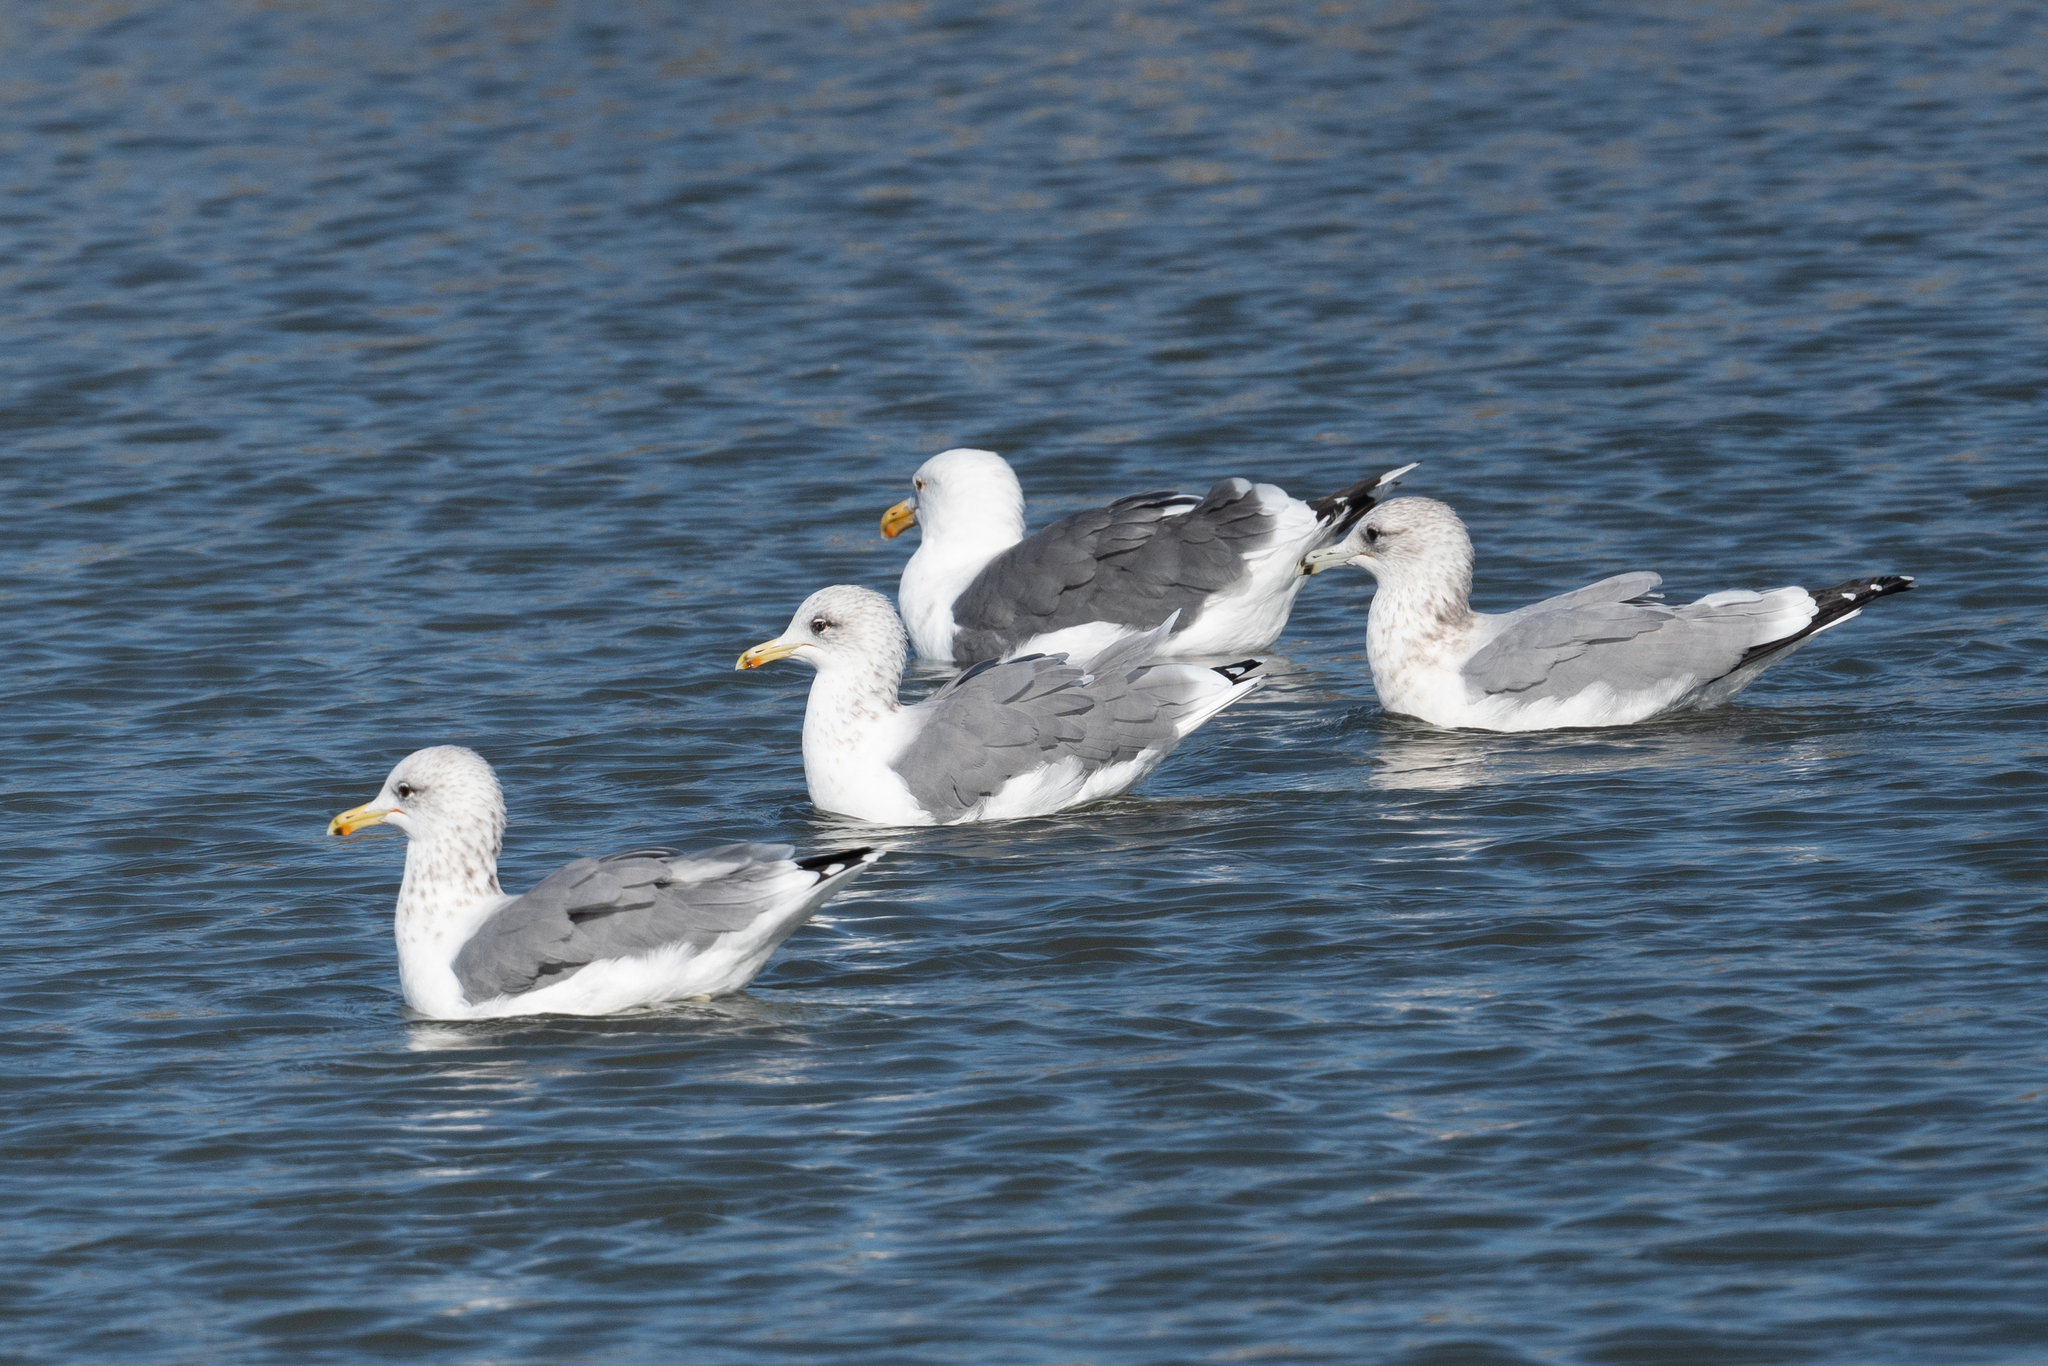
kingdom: Animalia
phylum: Chordata
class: Aves
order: Charadriiformes
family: Laridae
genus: Larus
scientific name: Larus californicus
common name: California gull
